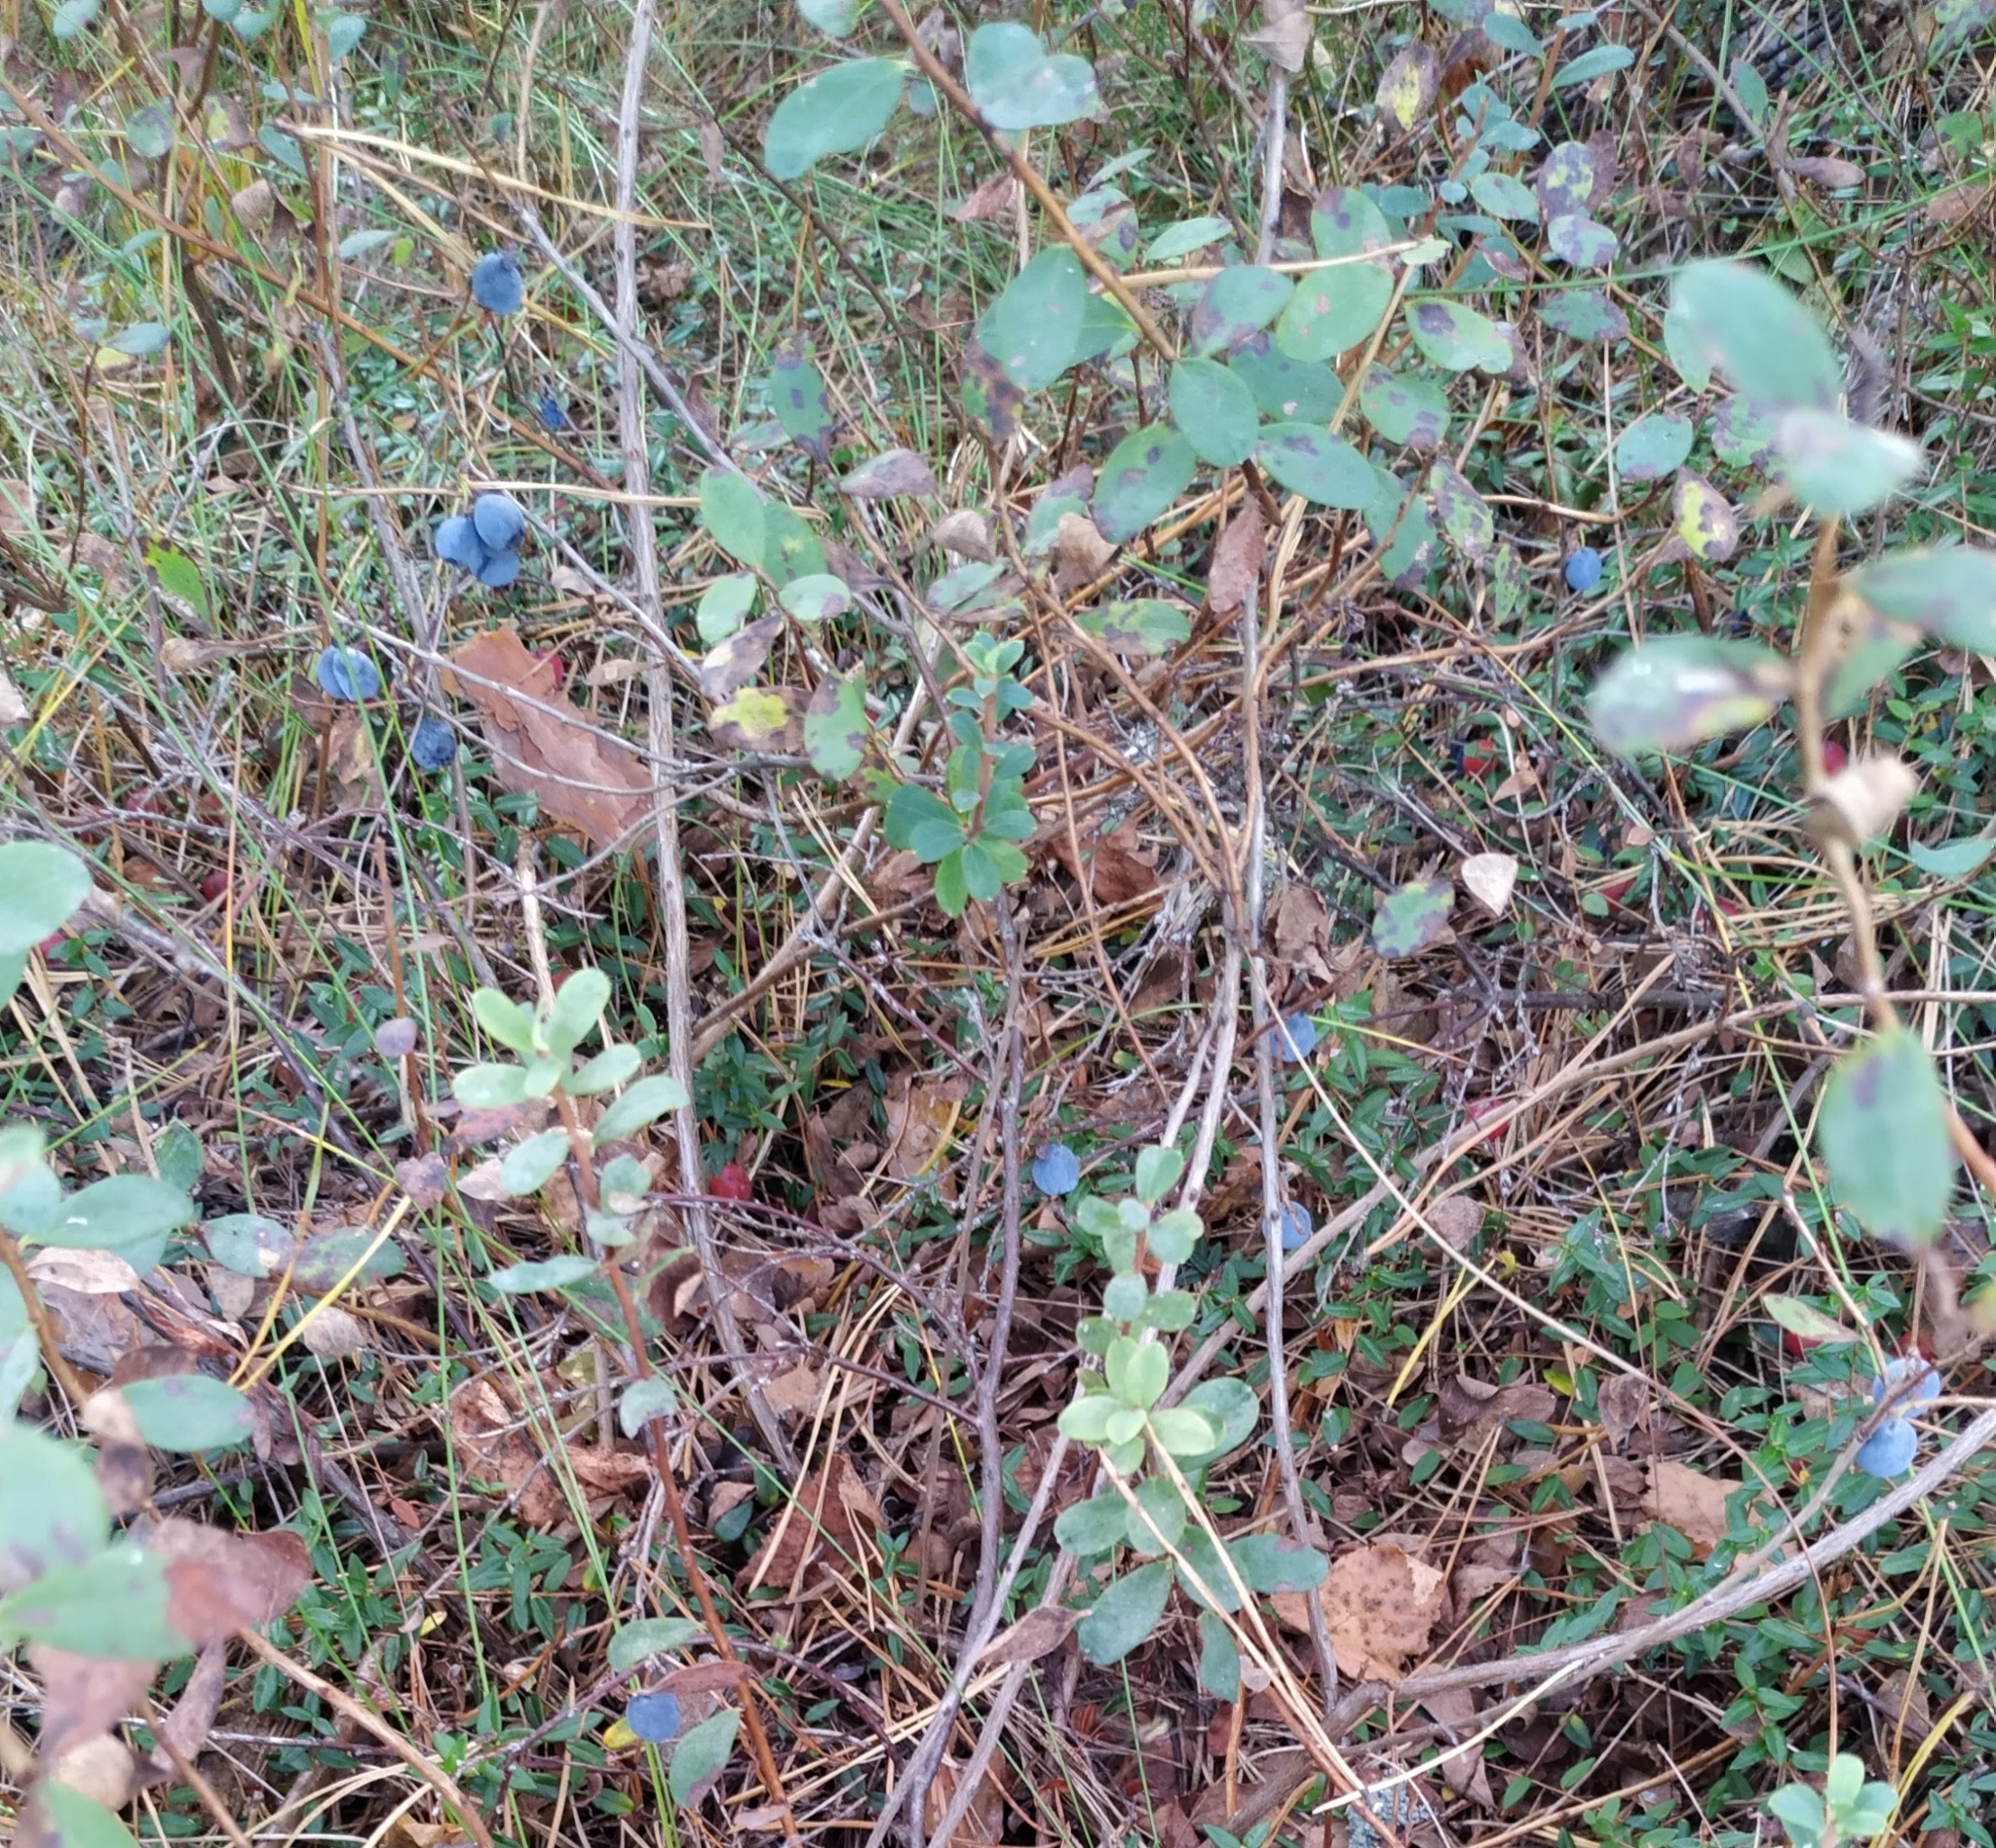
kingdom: Plantae
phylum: Tracheophyta
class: Magnoliopsida
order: Ericales
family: Ericaceae
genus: Vaccinium
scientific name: Vaccinium uliginosum
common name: Bog bilberry
